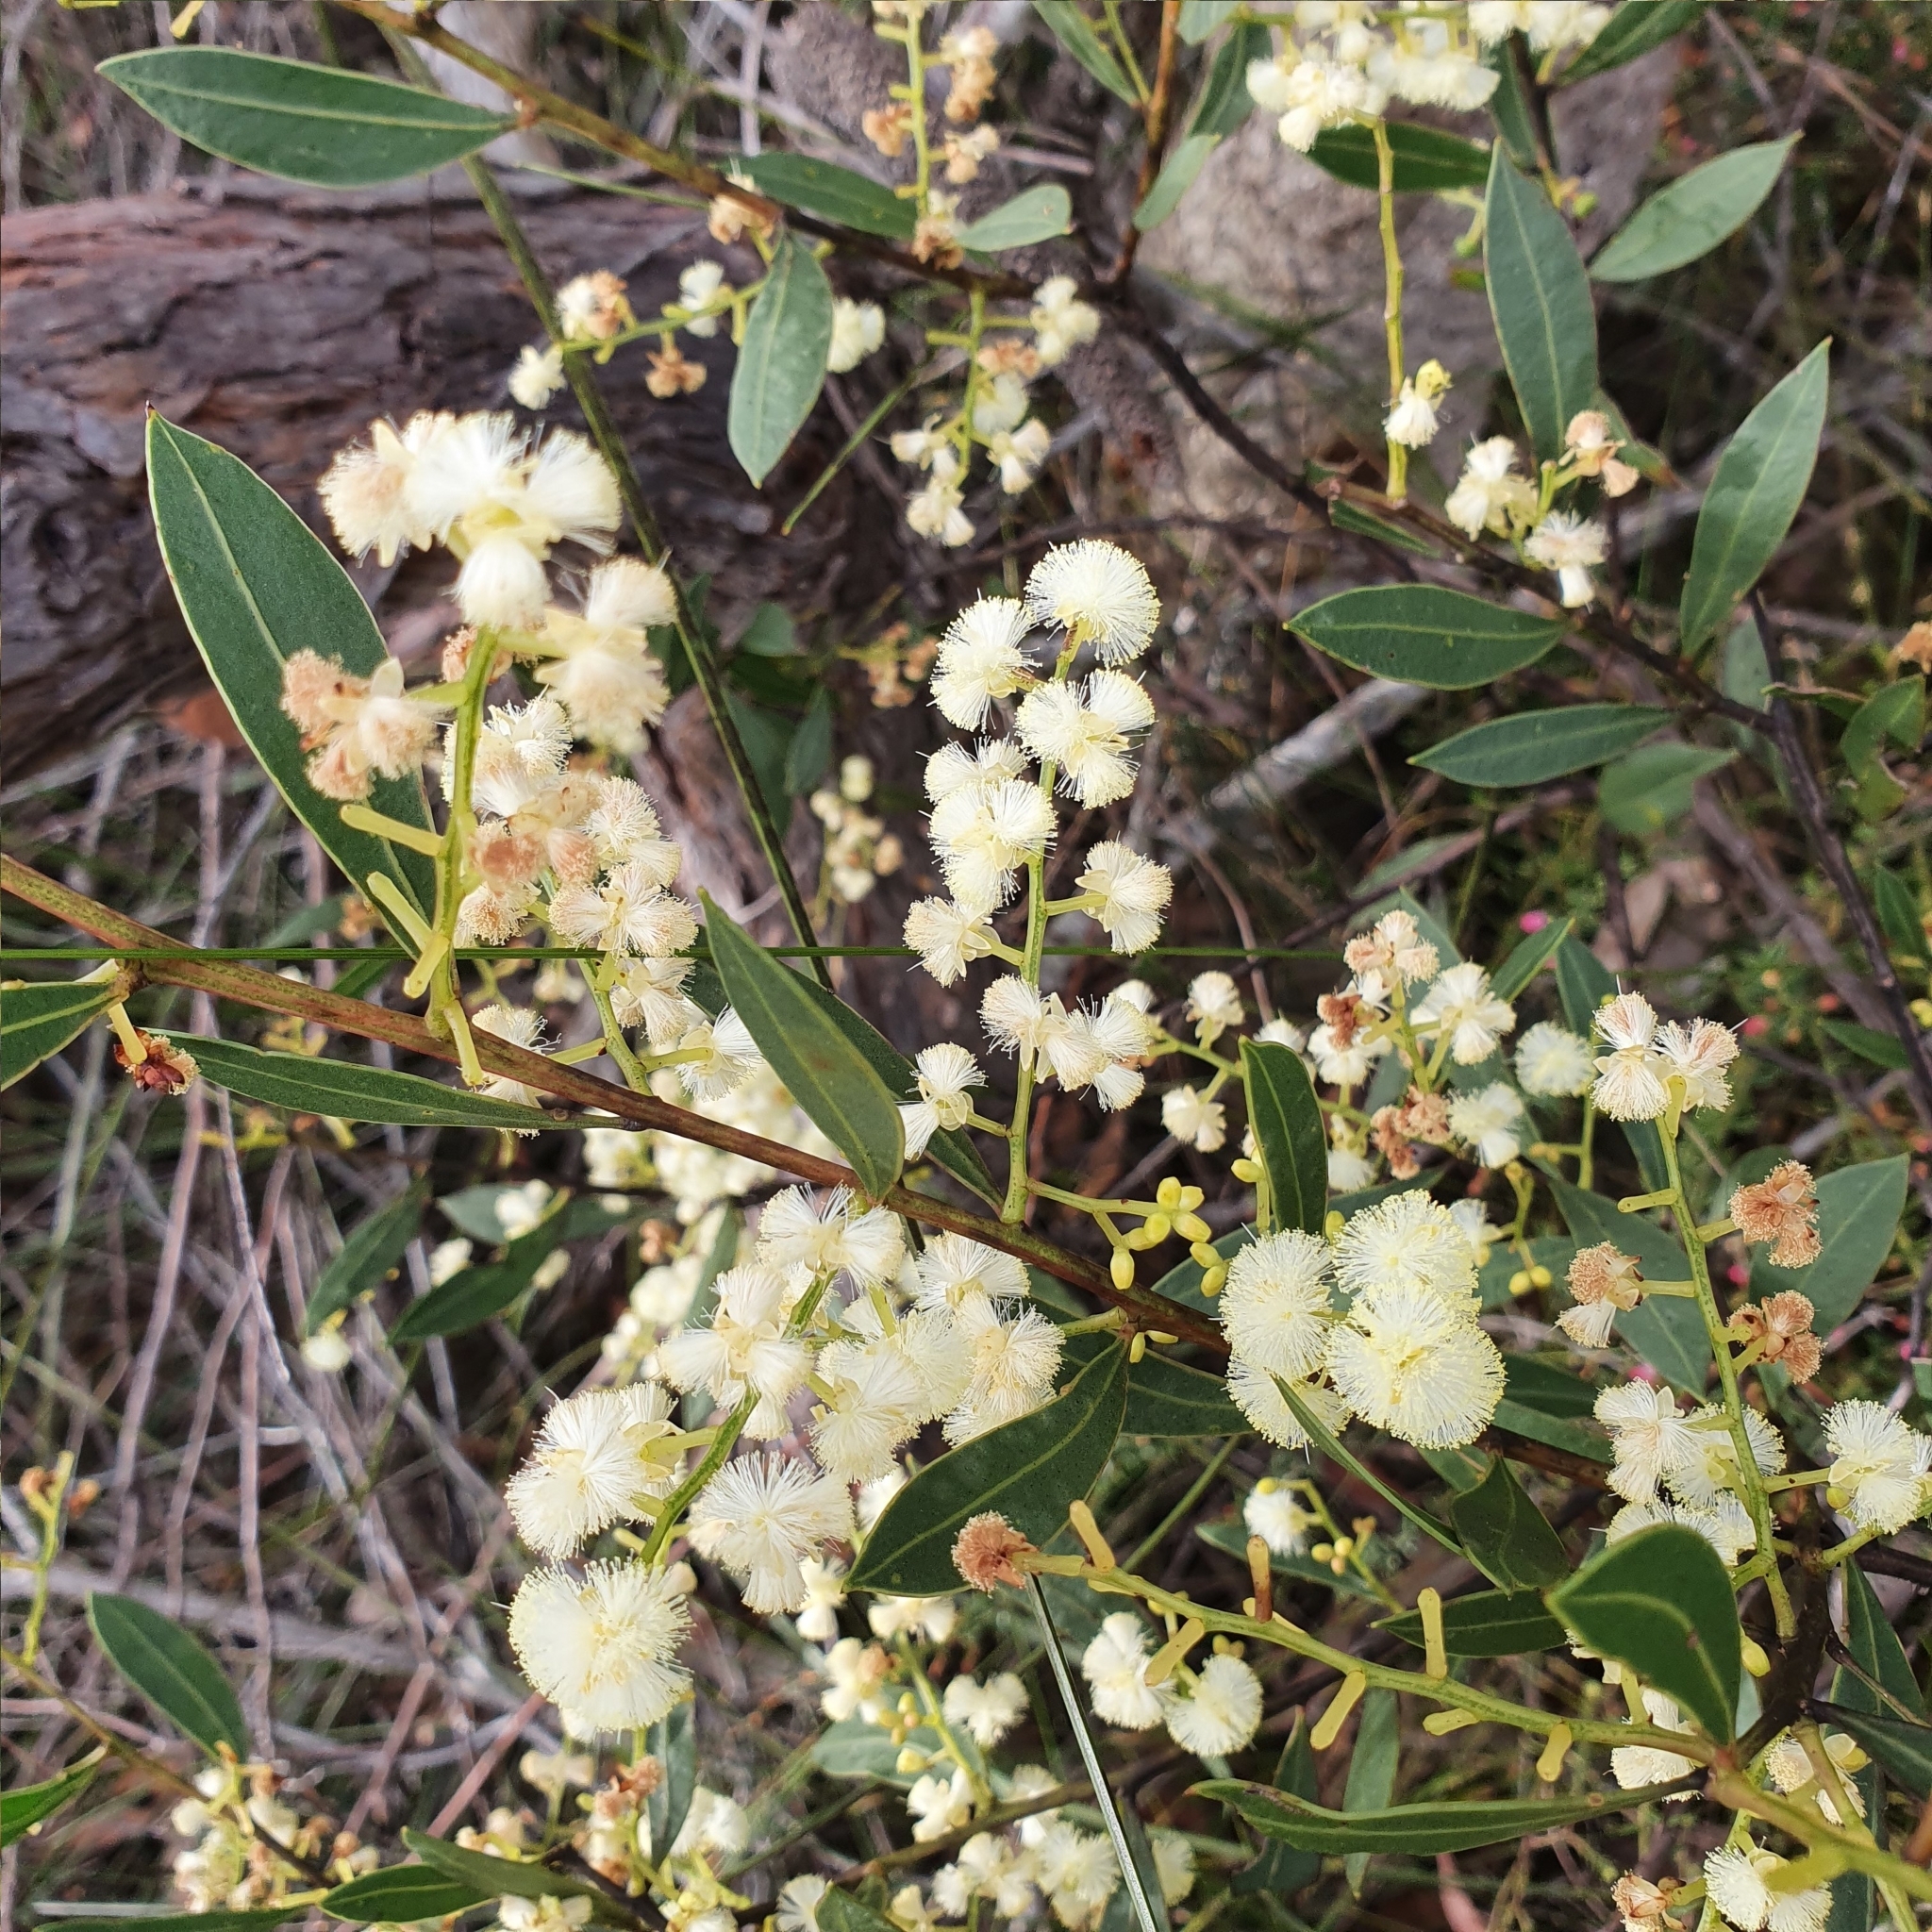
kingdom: Plantae
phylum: Tracheophyta
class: Magnoliopsida
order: Fabales
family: Fabaceae
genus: Acacia
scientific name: Acacia myrtifolia
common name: Myrtle wattle
